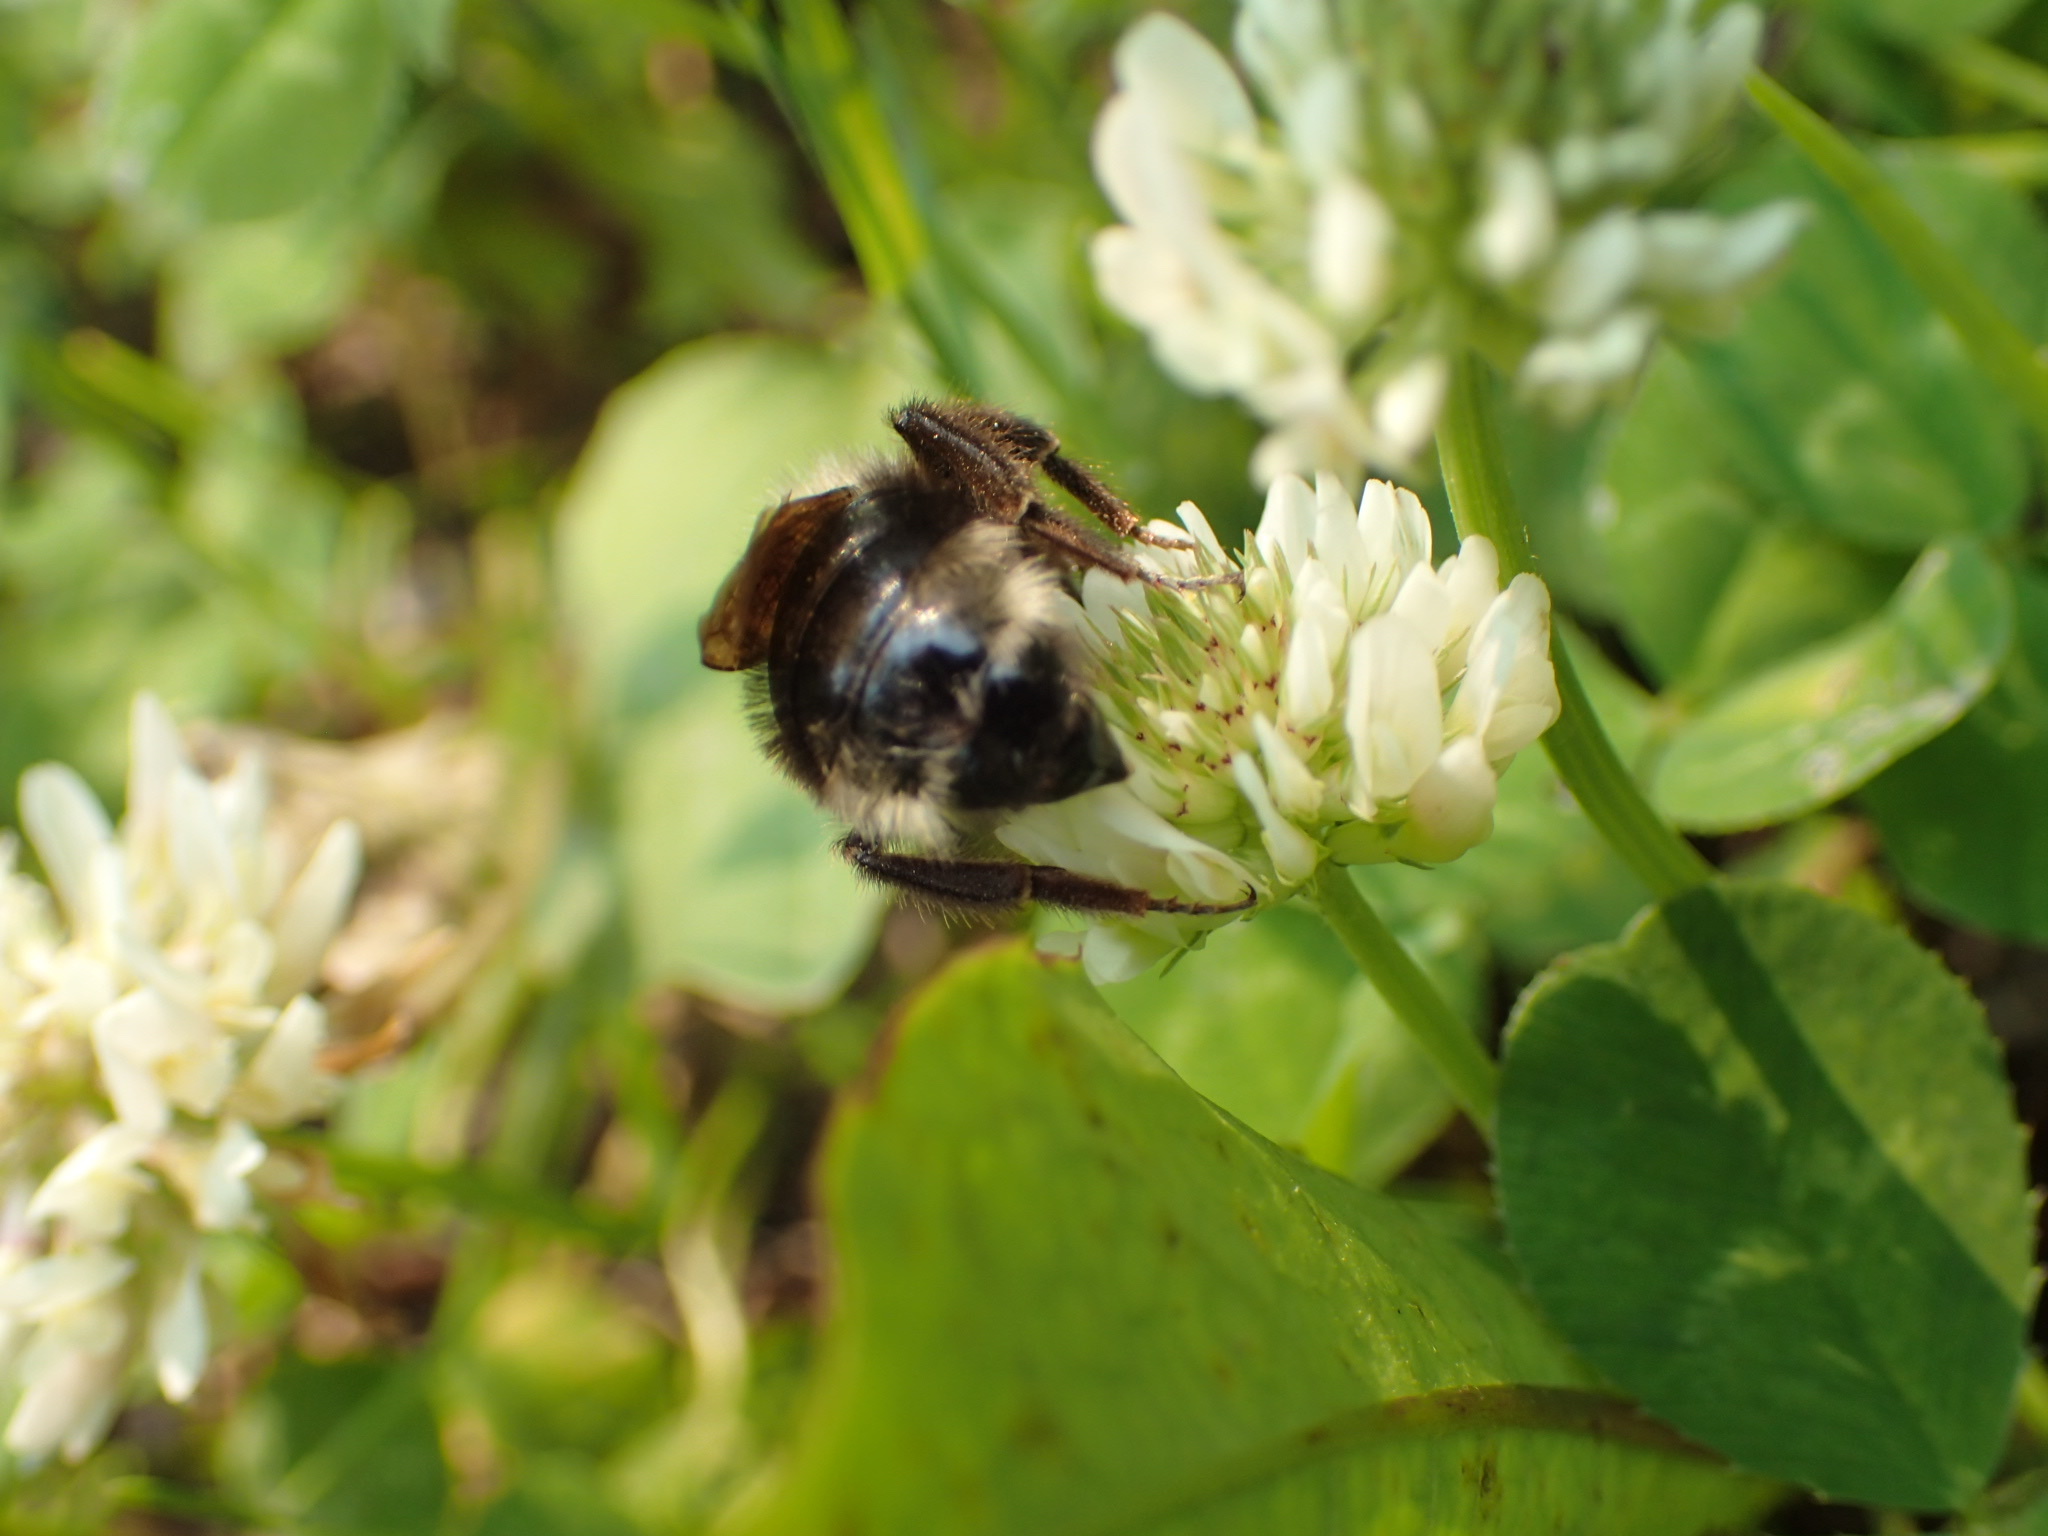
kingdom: Animalia
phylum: Arthropoda
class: Insecta
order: Hymenoptera
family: Apidae
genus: Bombus
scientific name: Bombus flavidus
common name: Fernald cuckoo bumble bee
